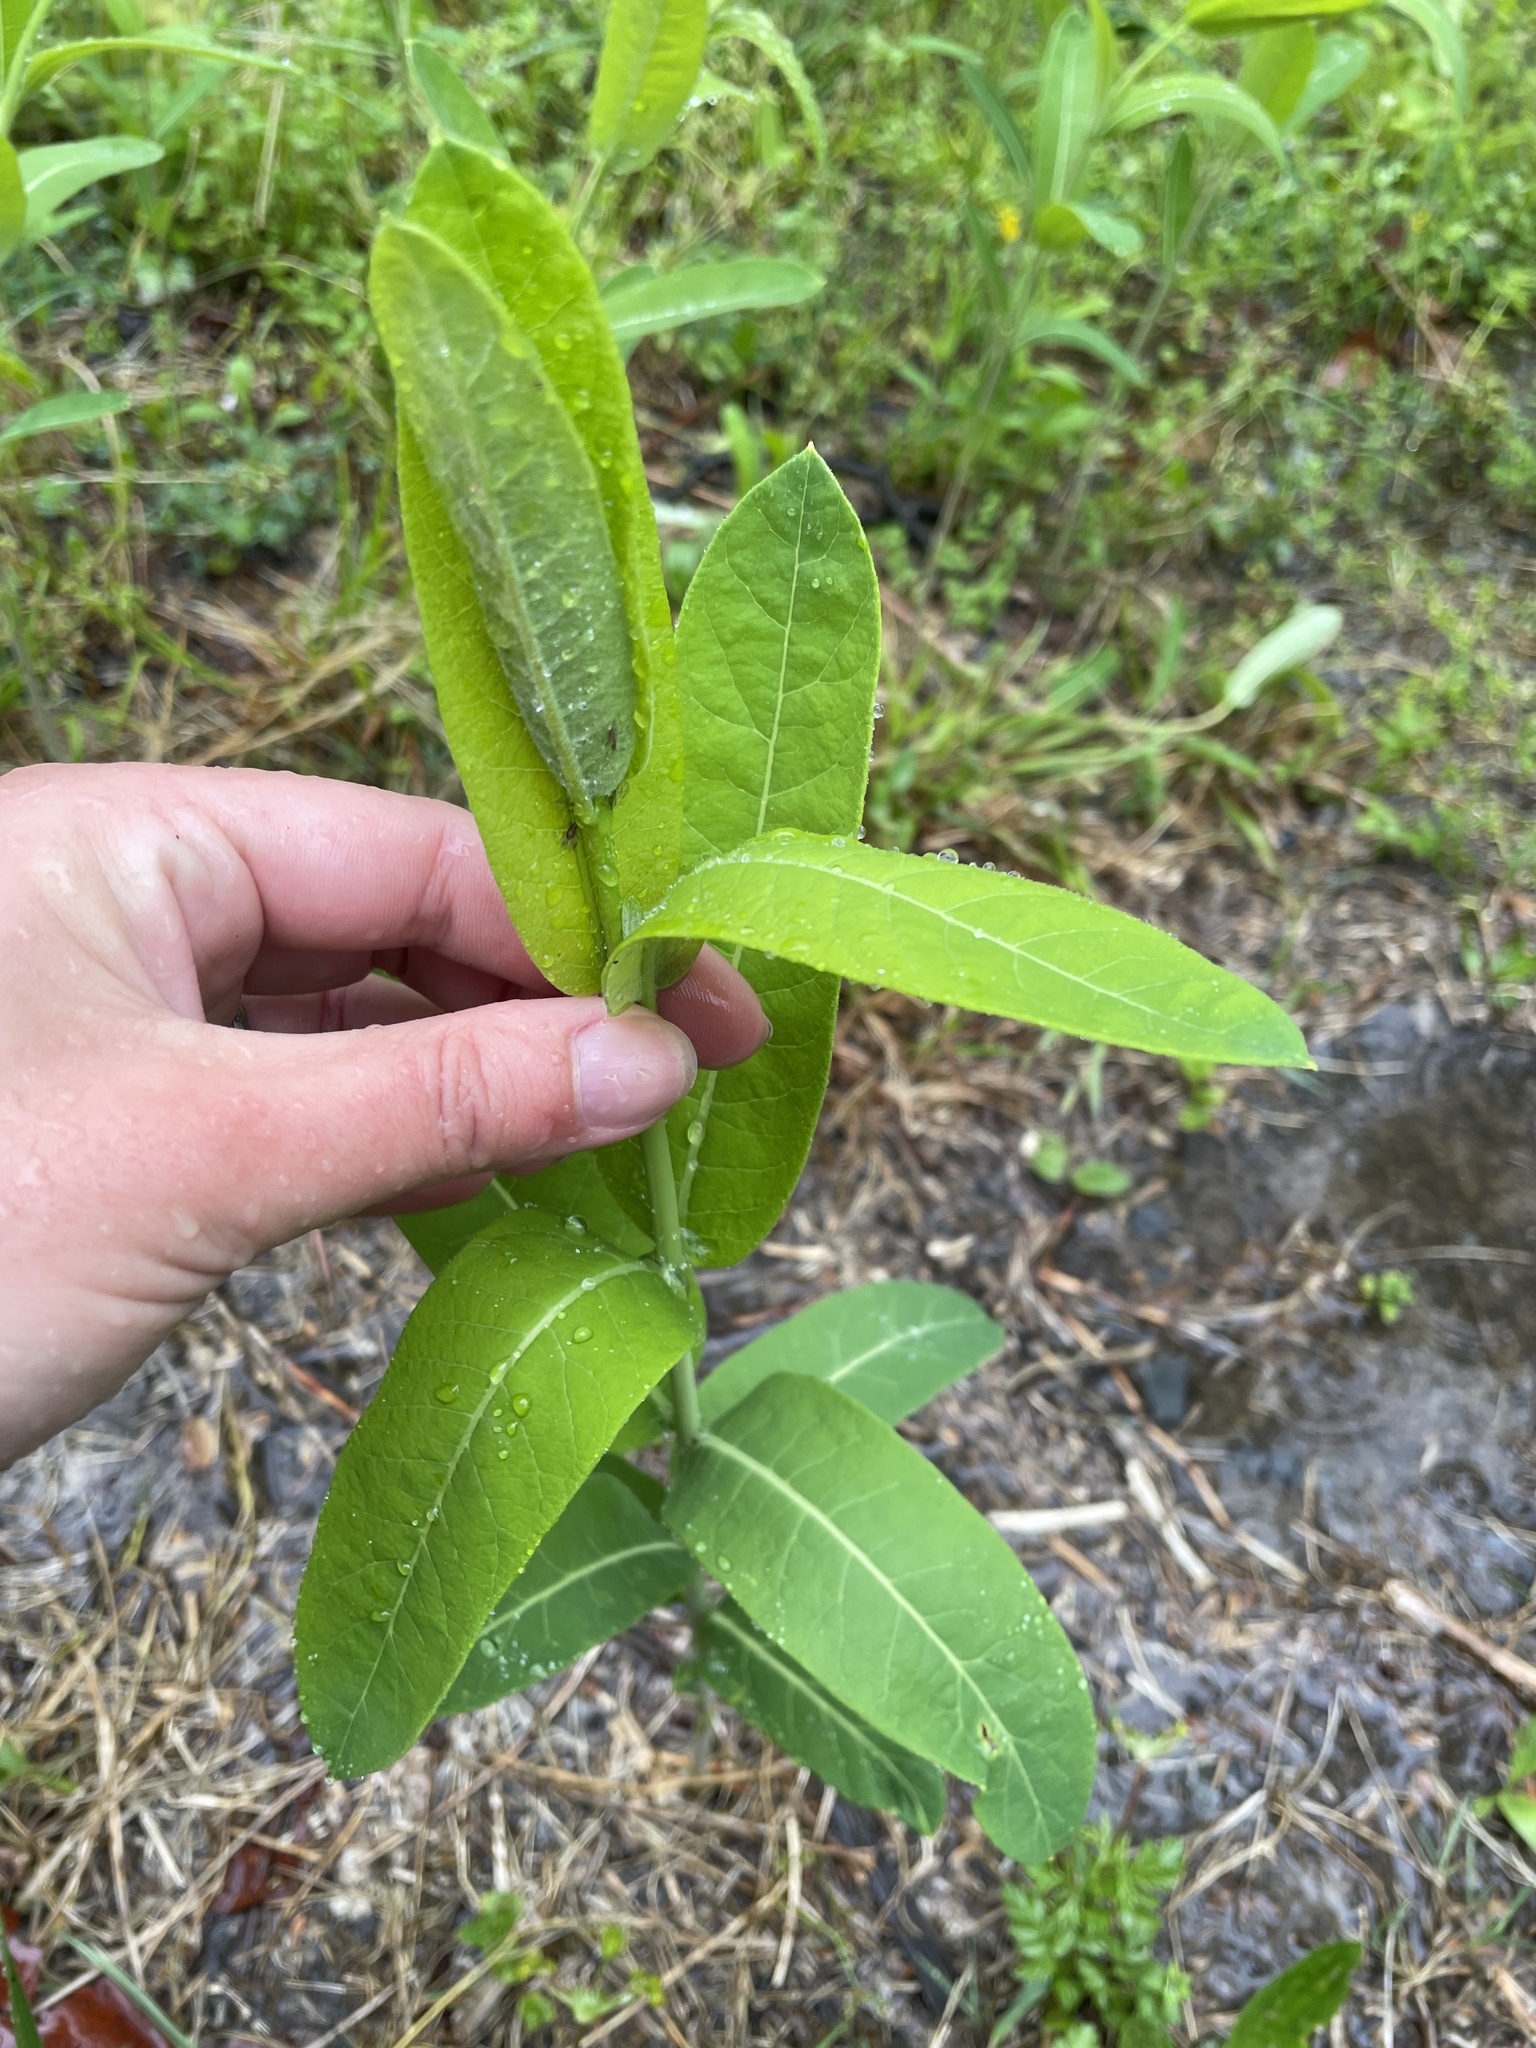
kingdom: Plantae
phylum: Tracheophyta
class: Magnoliopsida
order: Gentianales
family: Apocynaceae
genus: Apocynum
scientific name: Apocynum cannabinum
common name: Hemp dogbane
